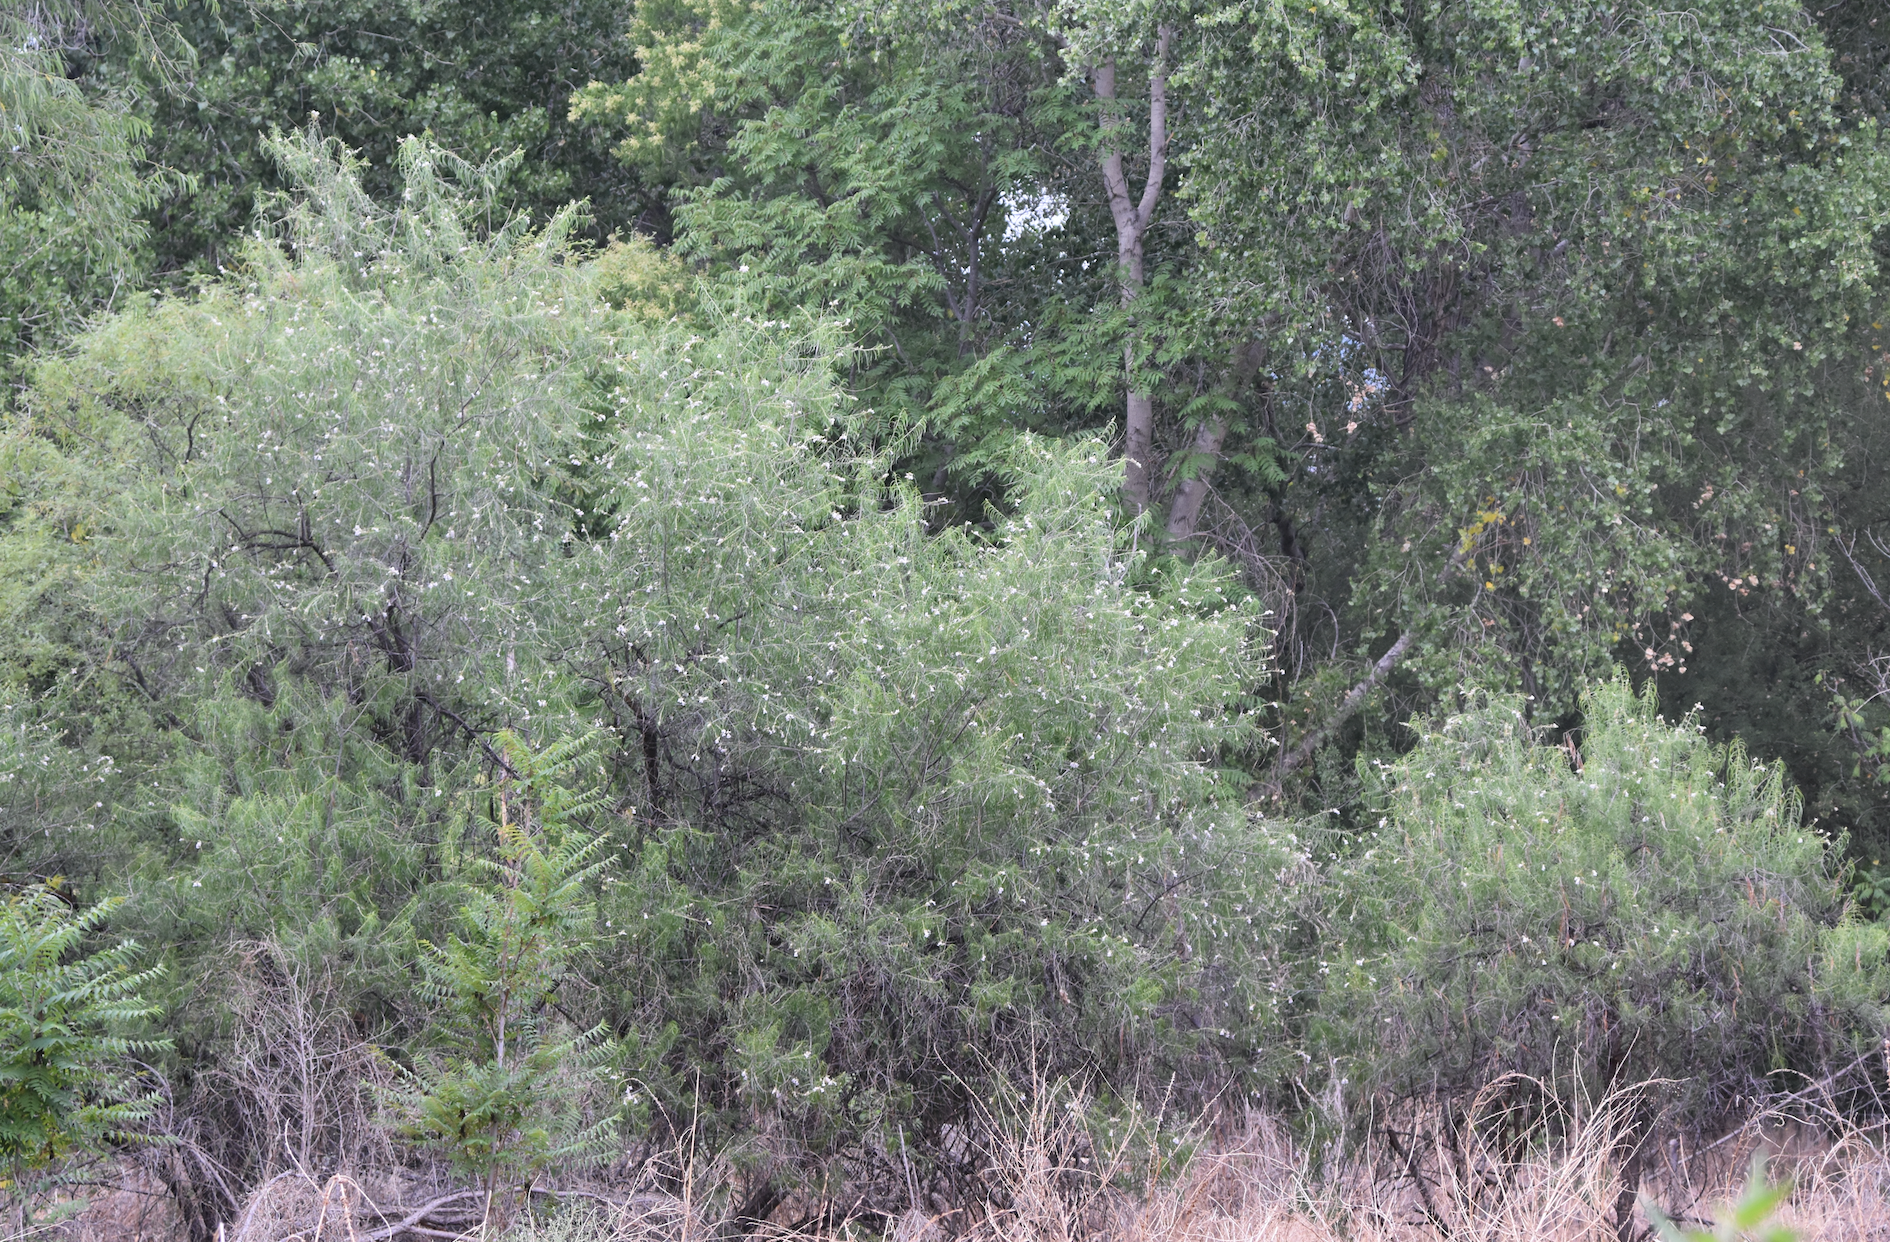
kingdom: Plantae
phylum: Tracheophyta
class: Magnoliopsida
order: Lamiales
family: Bignoniaceae
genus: Chilopsis
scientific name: Chilopsis linearis
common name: Desert-willow
